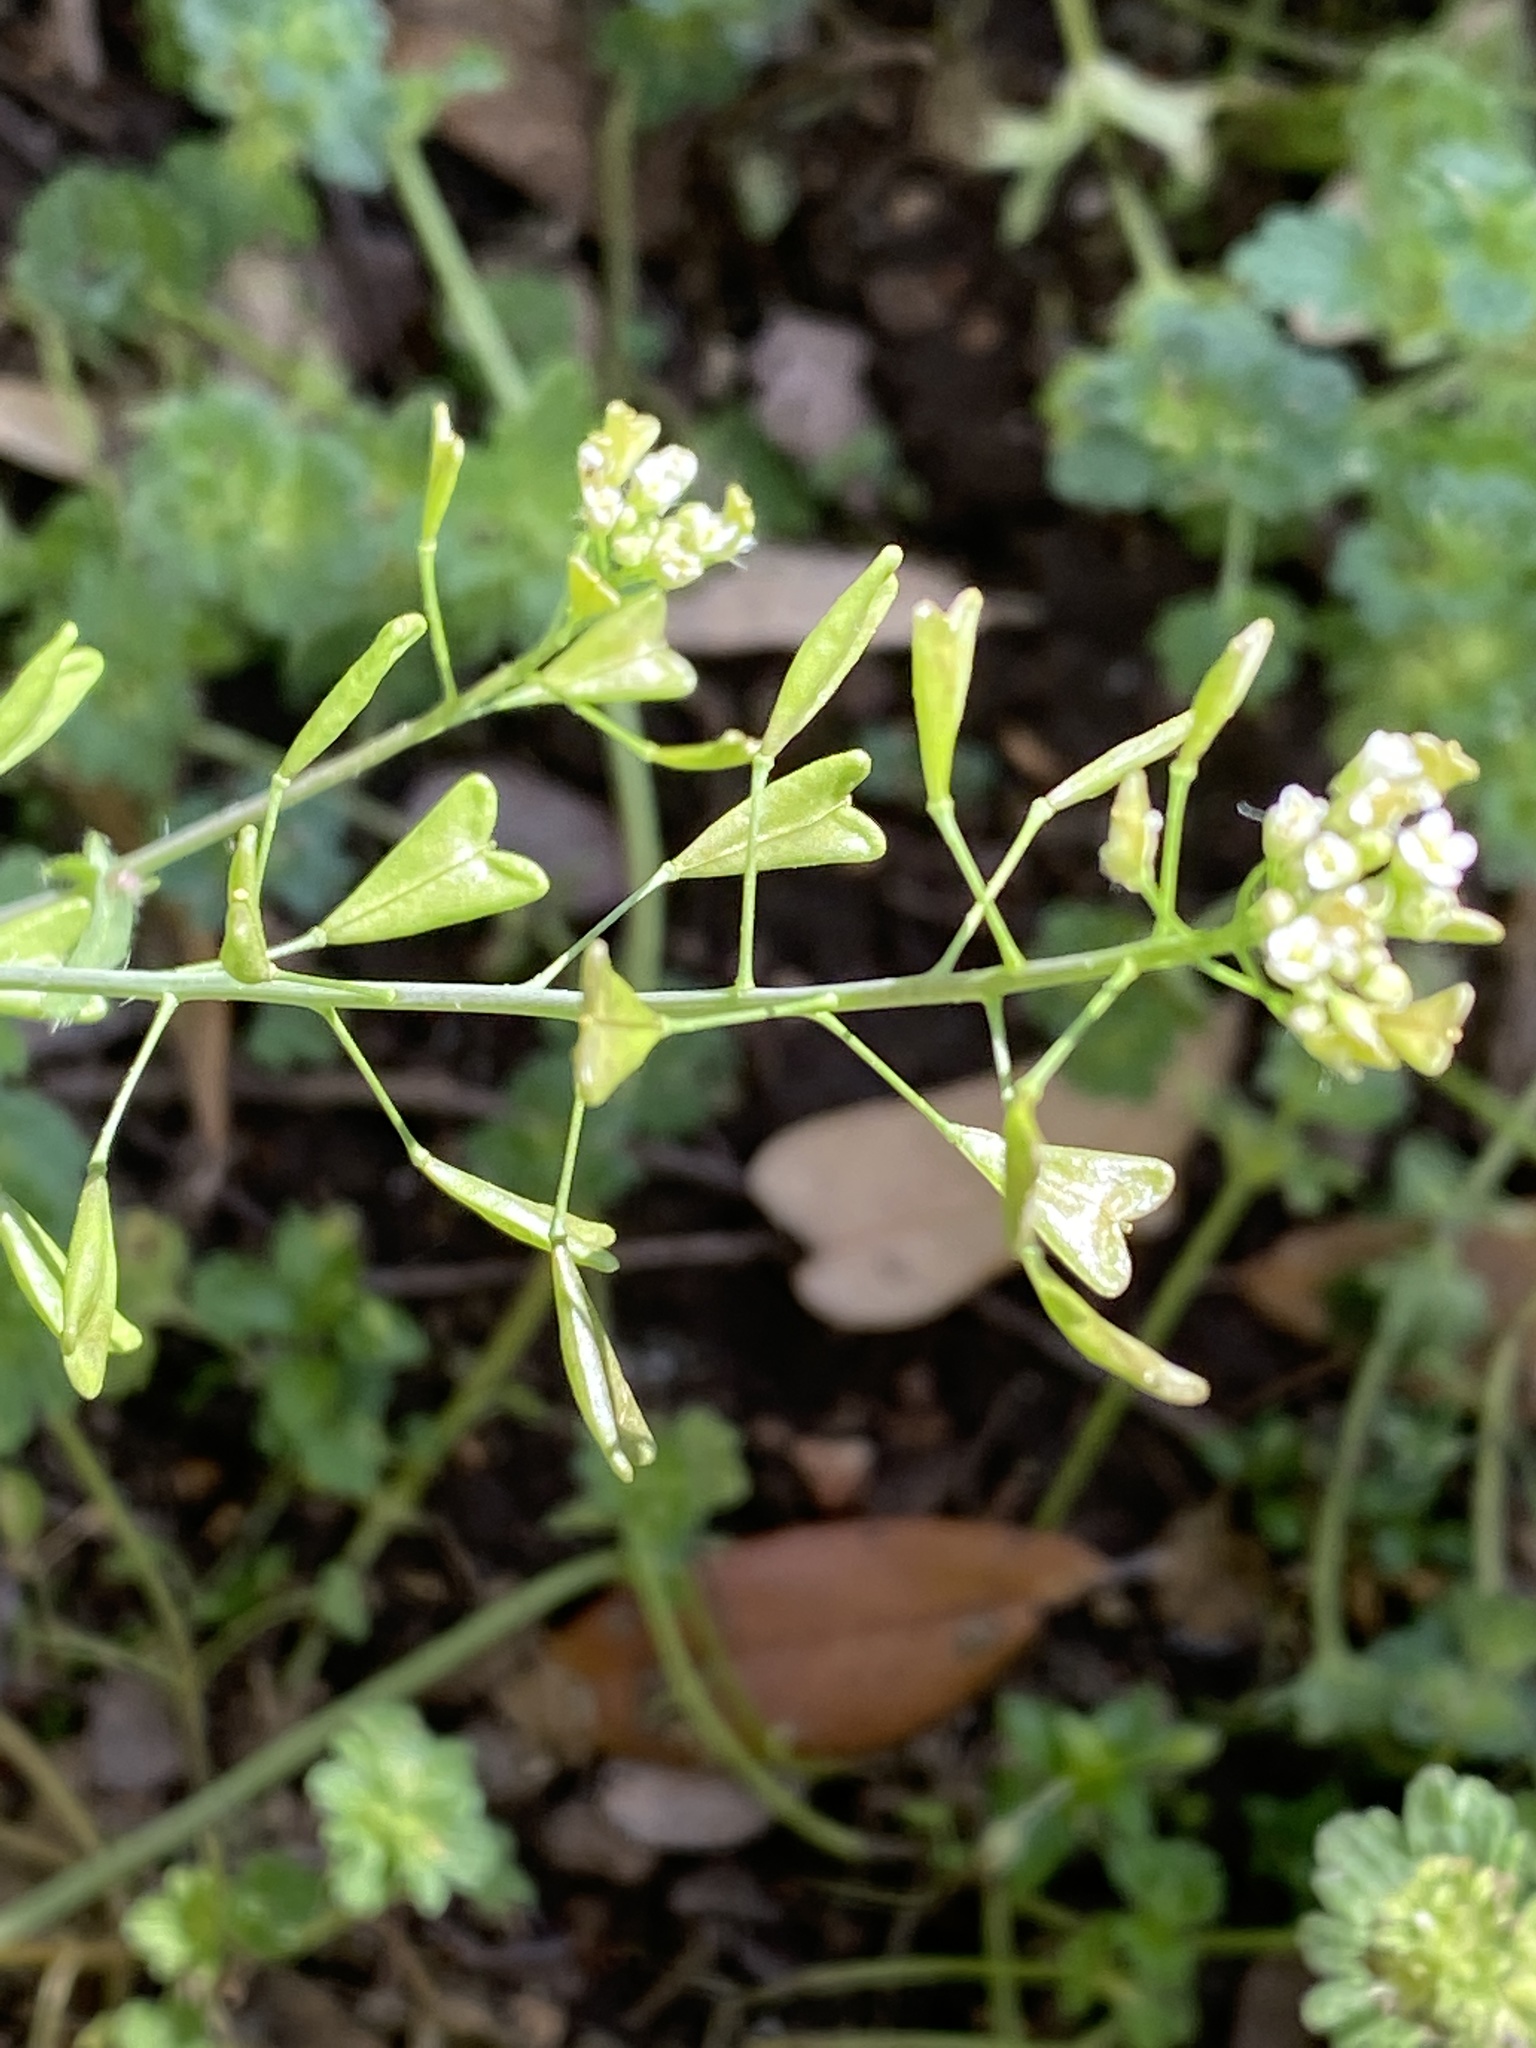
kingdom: Plantae
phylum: Tracheophyta
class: Magnoliopsida
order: Brassicales
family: Brassicaceae
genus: Capsella
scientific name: Capsella bursa-pastoris
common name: Shepherd's purse
